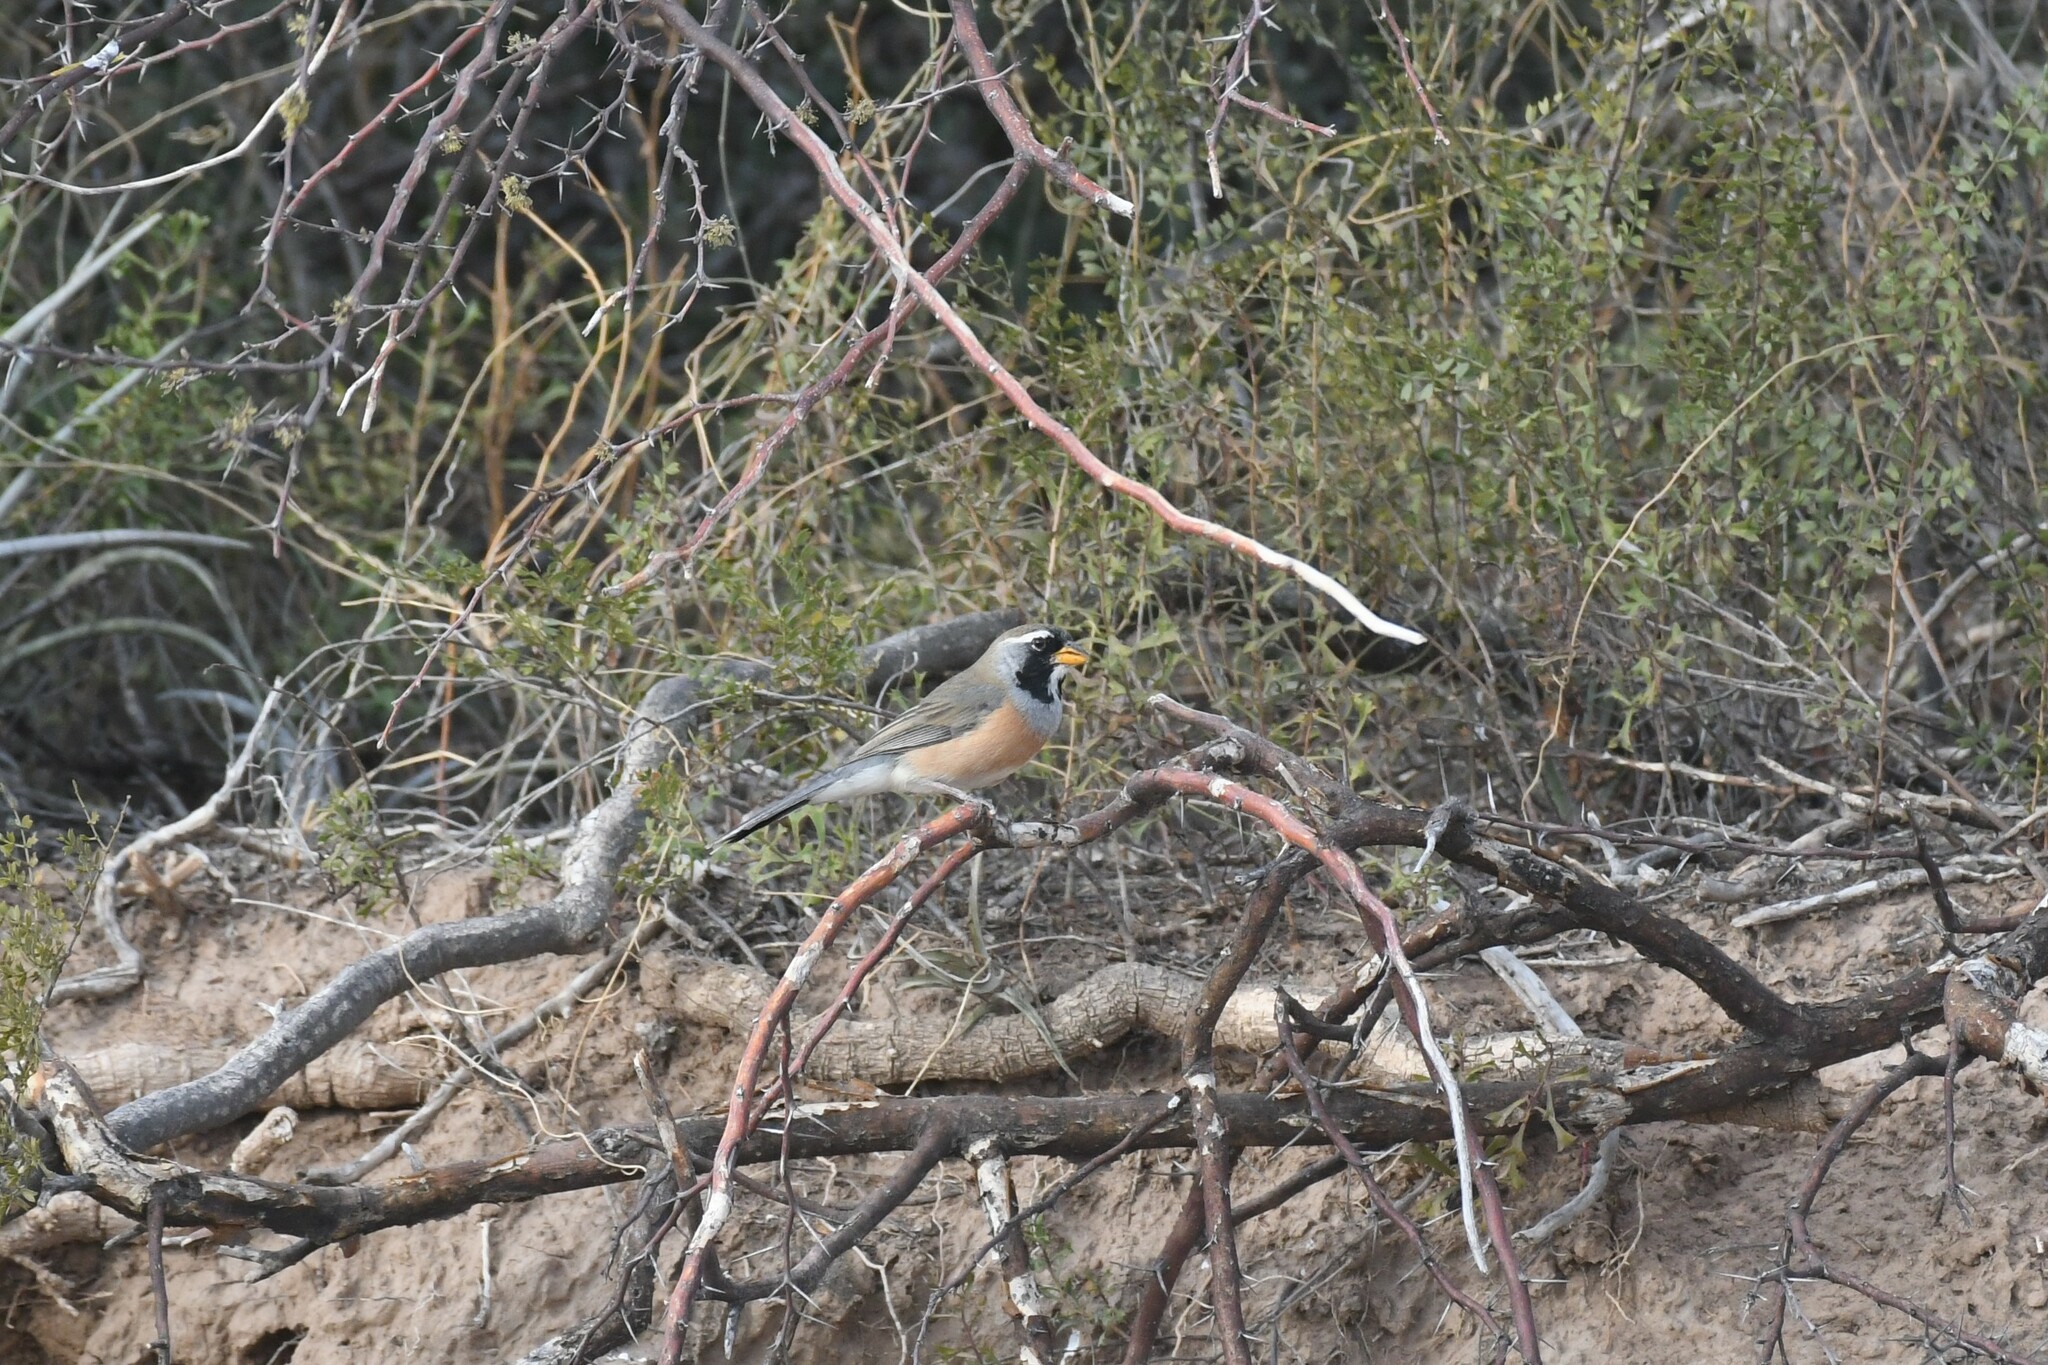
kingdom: Animalia
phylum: Chordata
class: Aves
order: Passeriformes
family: Thraupidae
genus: Saltatricula
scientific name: Saltatricula multicolor
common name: Many-colored chaco finch
